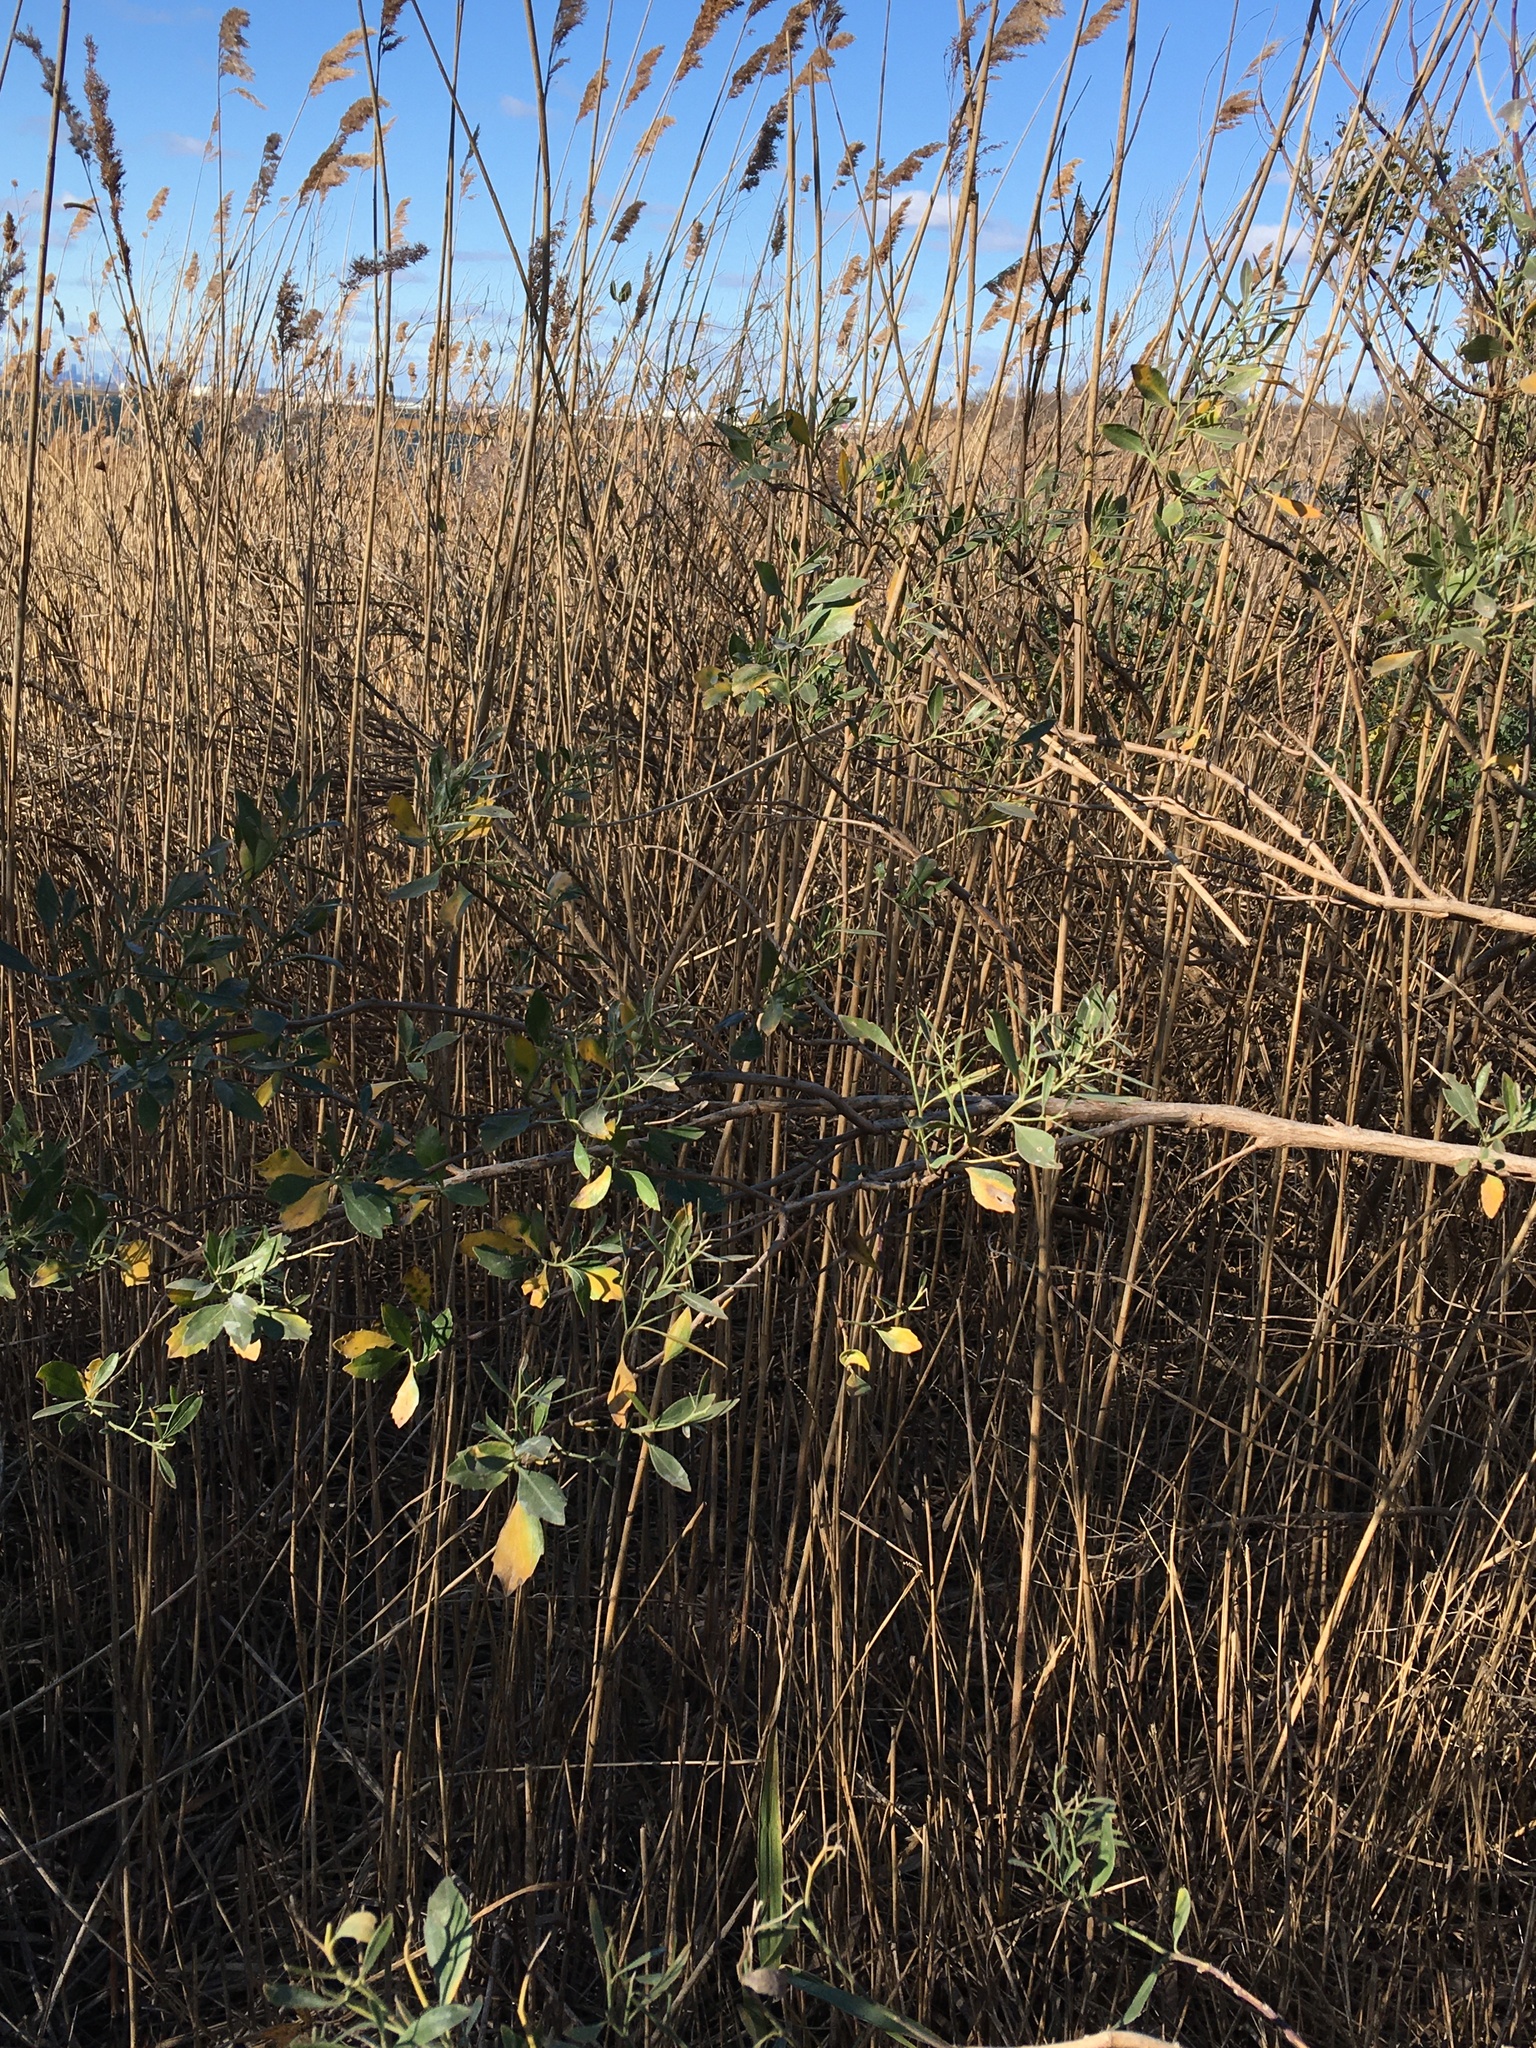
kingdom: Plantae
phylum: Tracheophyta
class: Magnoliopsida
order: Asterales
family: Asteraceae
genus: Baccharis
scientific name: Baccharis halimifolia
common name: Eastern baccharis
